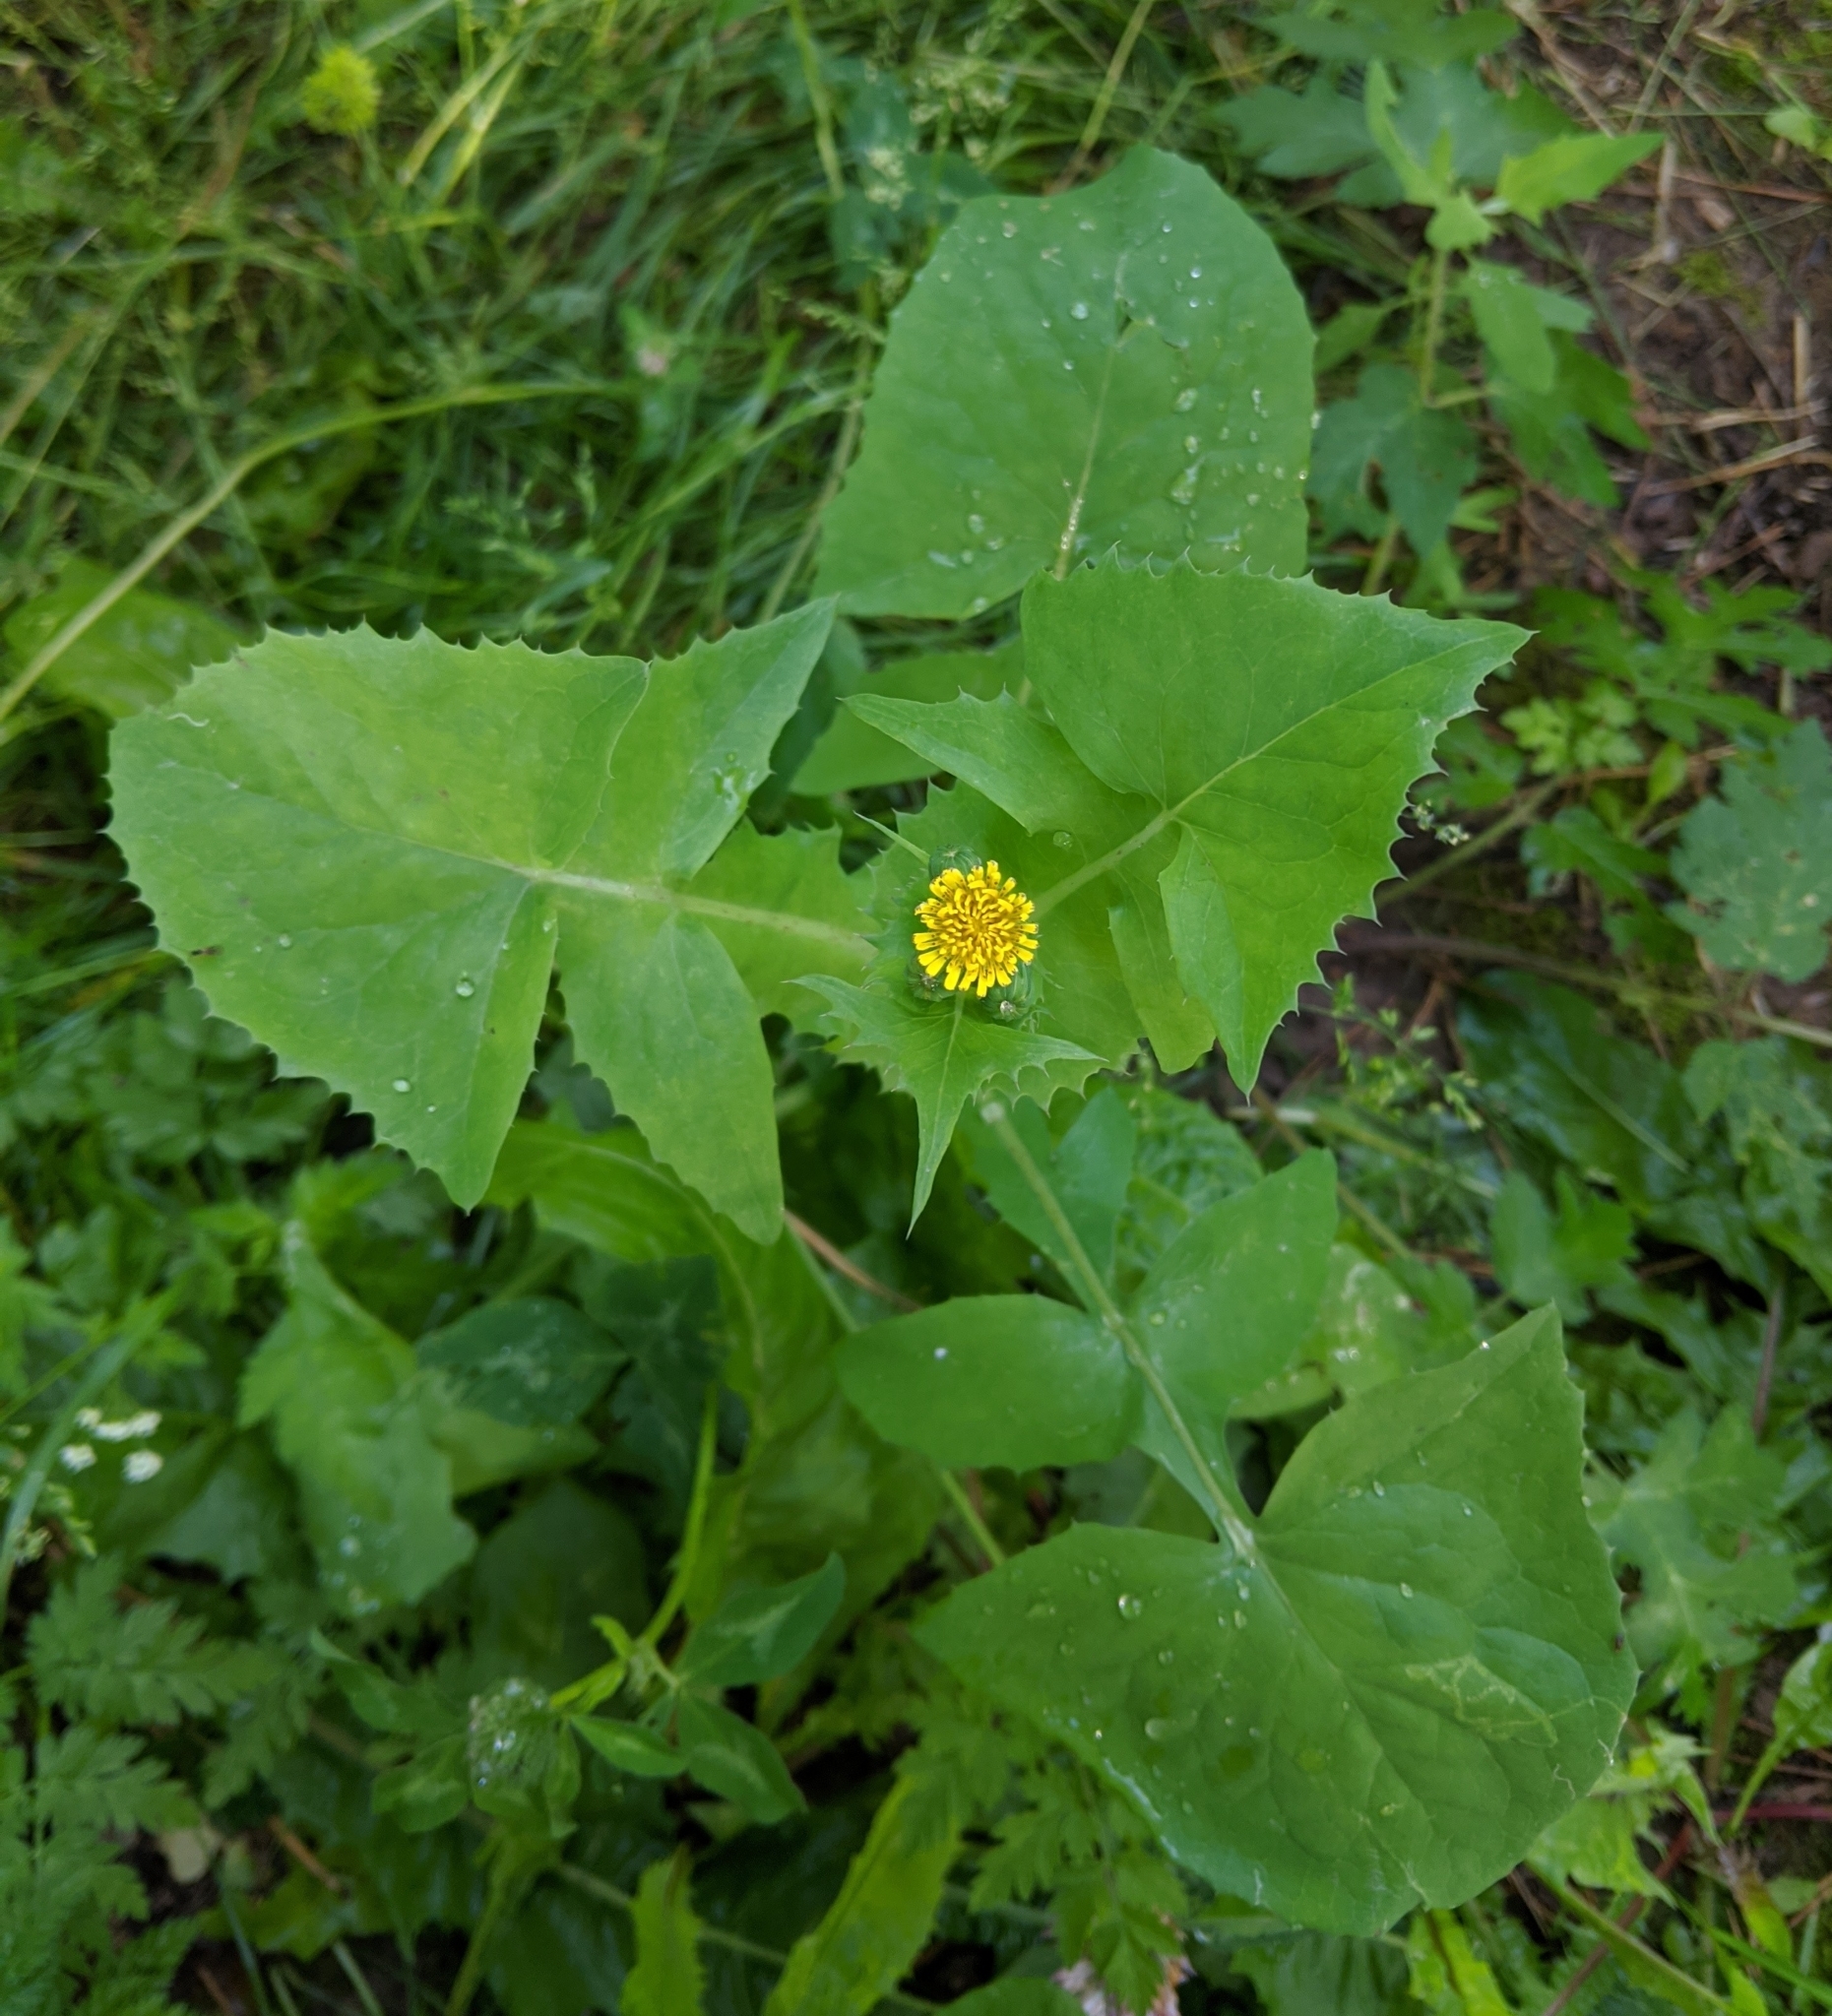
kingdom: Plantae
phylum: Tracheophyta
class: Magnoliopsida
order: Asterales
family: Asteraceae
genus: Sonchus
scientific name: Sonchus oleraceus
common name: Common sowthistle
